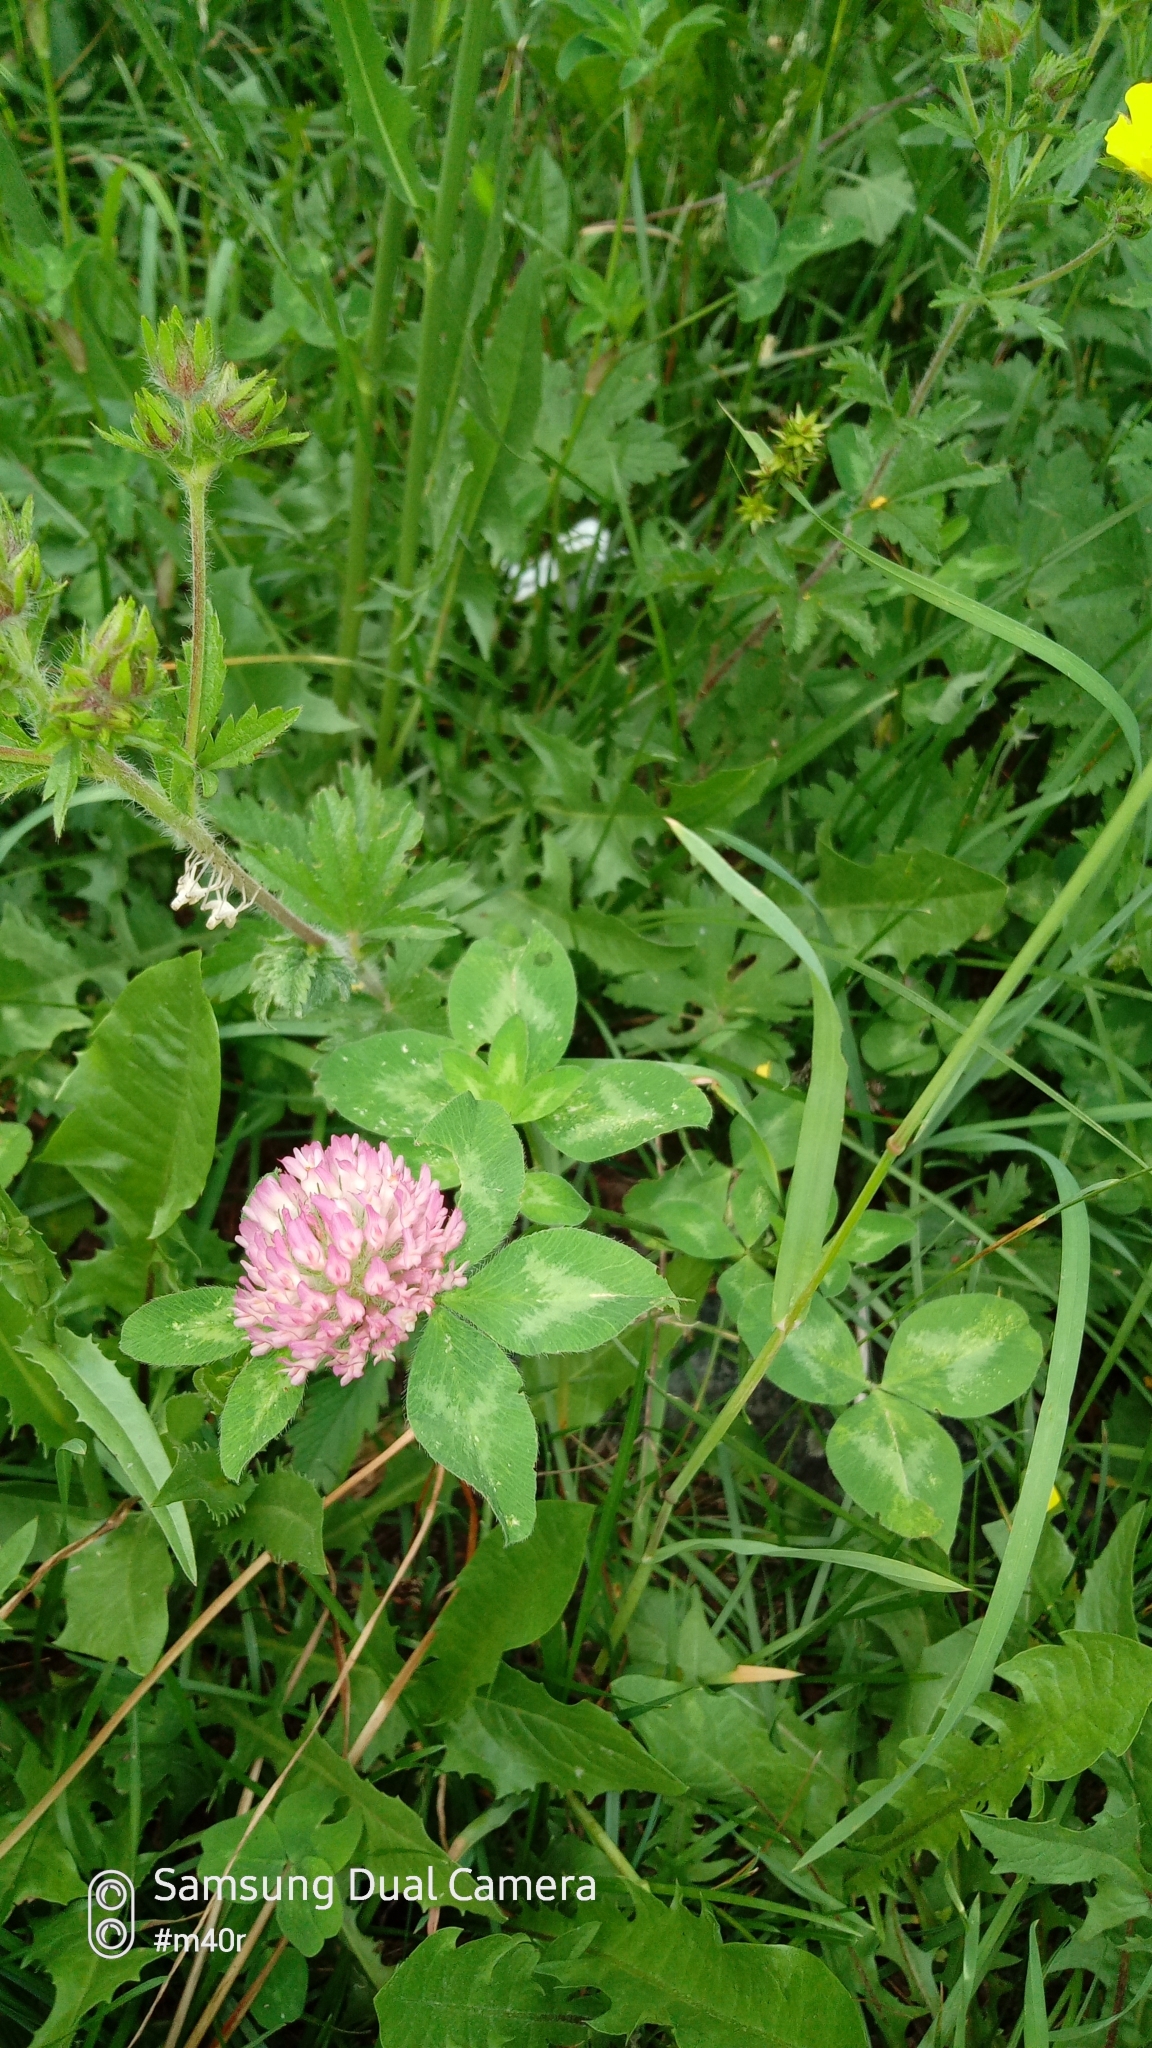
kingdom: Plantae
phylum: Tracheophyta
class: Magnoliopsida
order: Fabales
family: Fabaceae
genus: Trifolium
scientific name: Trifolium pratense
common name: Red clover
